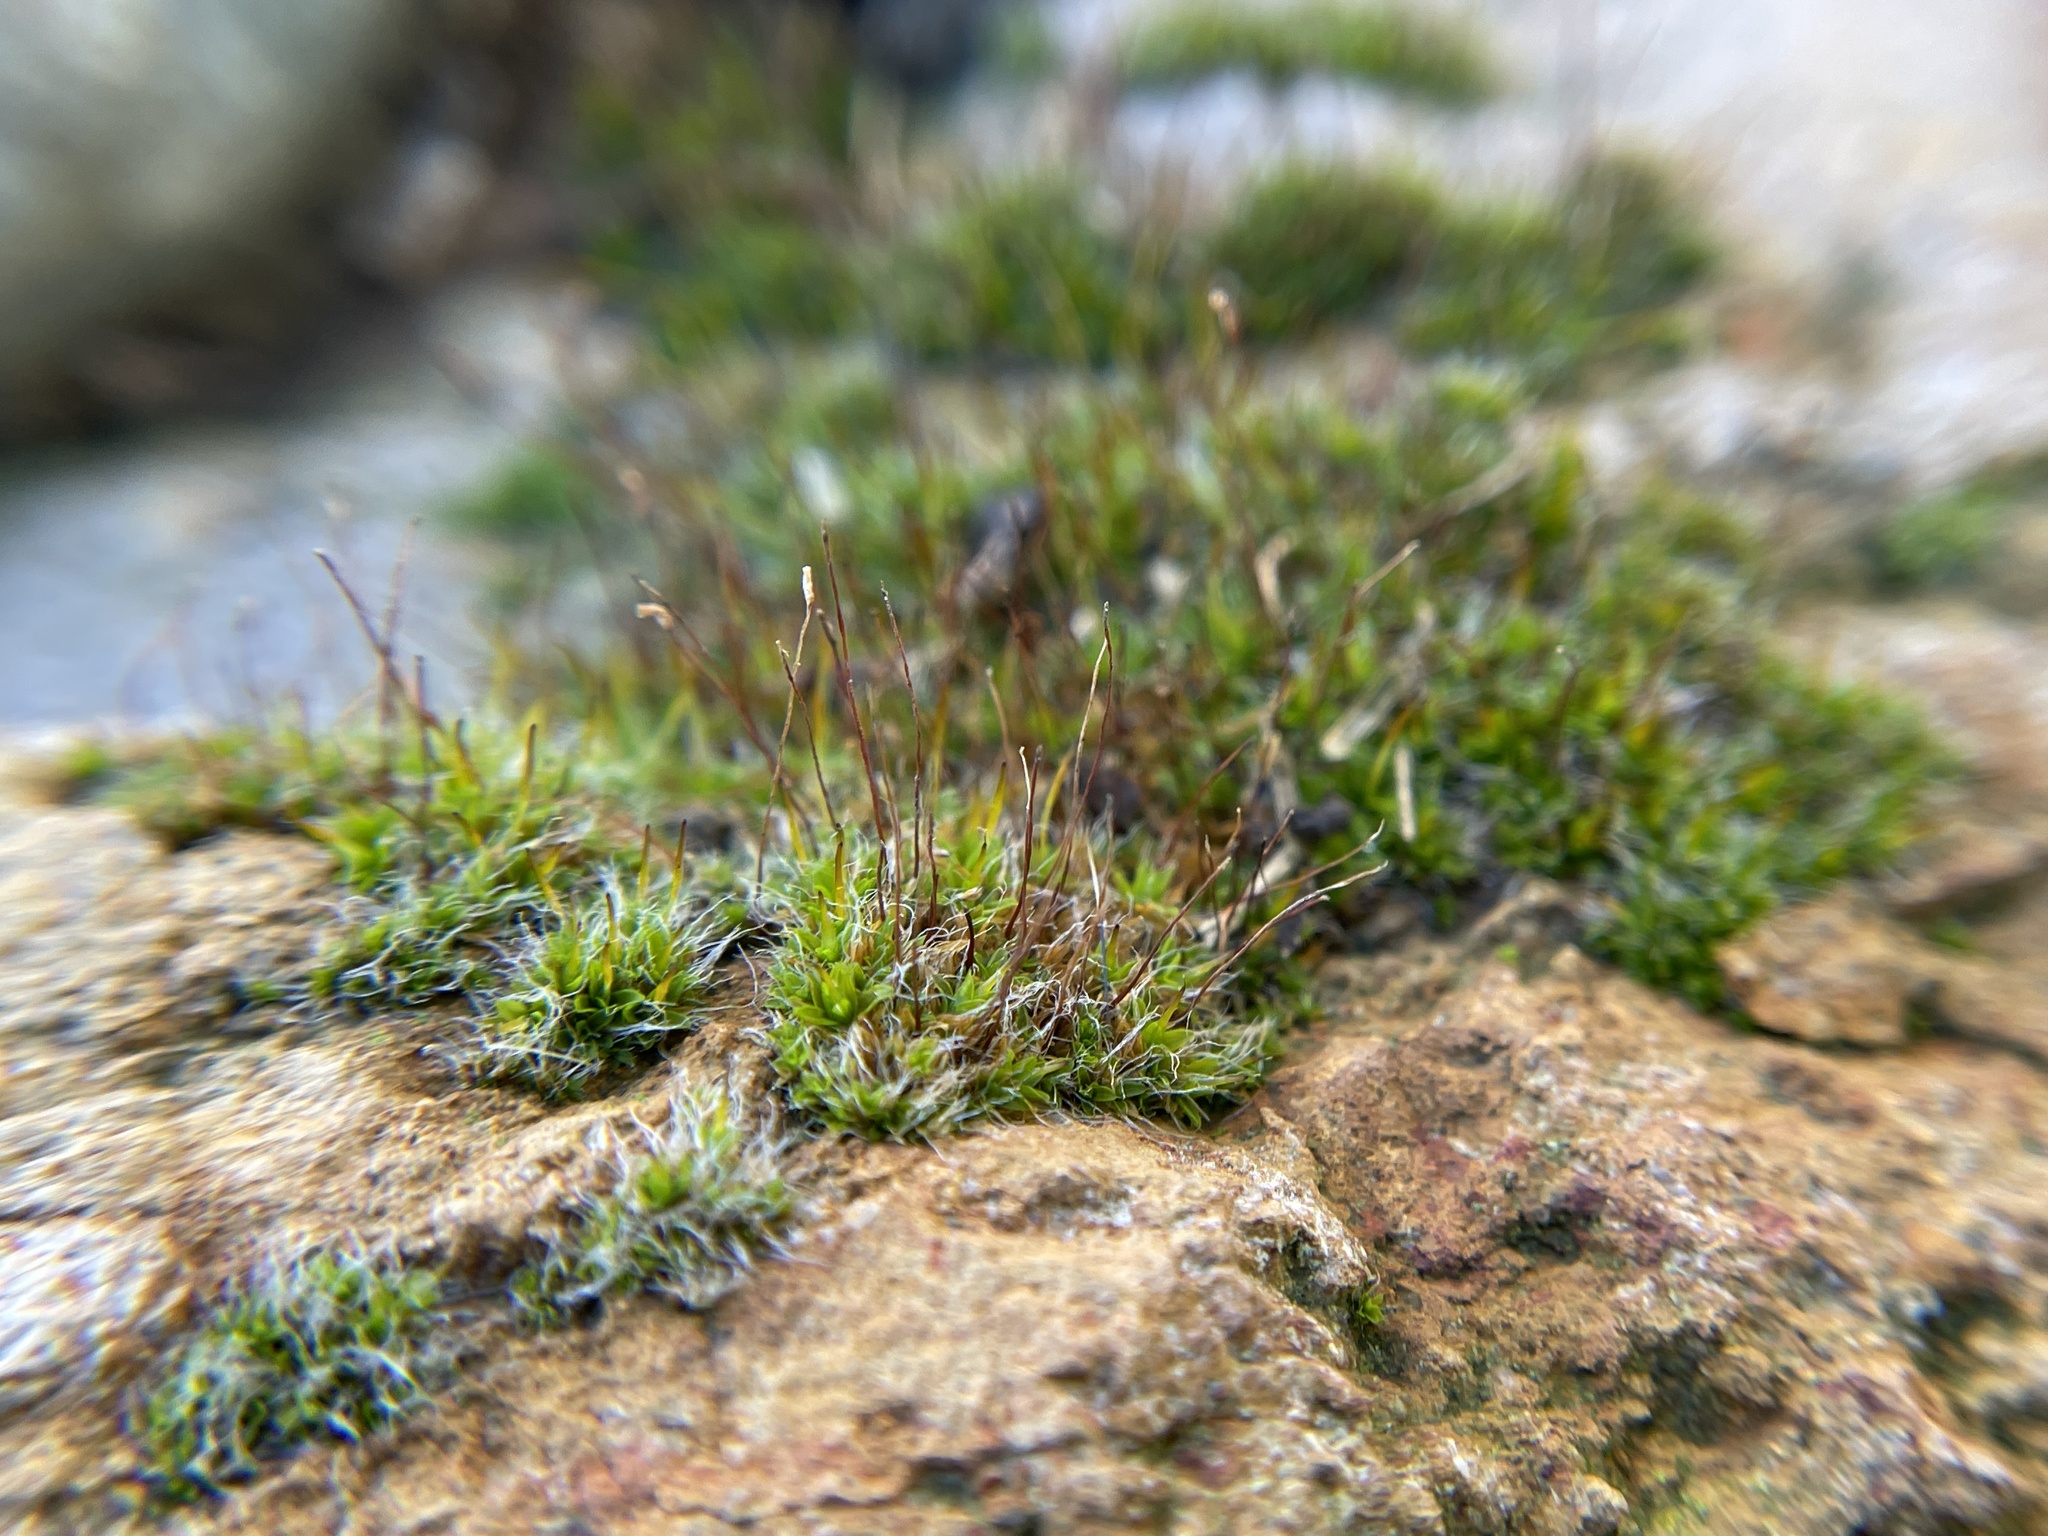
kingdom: Plantae
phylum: Bryophyta
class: Bryopsida
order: Pottiales
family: Pottiaceae
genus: Tortula
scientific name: Tortula muralis
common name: Wall screw-moss
